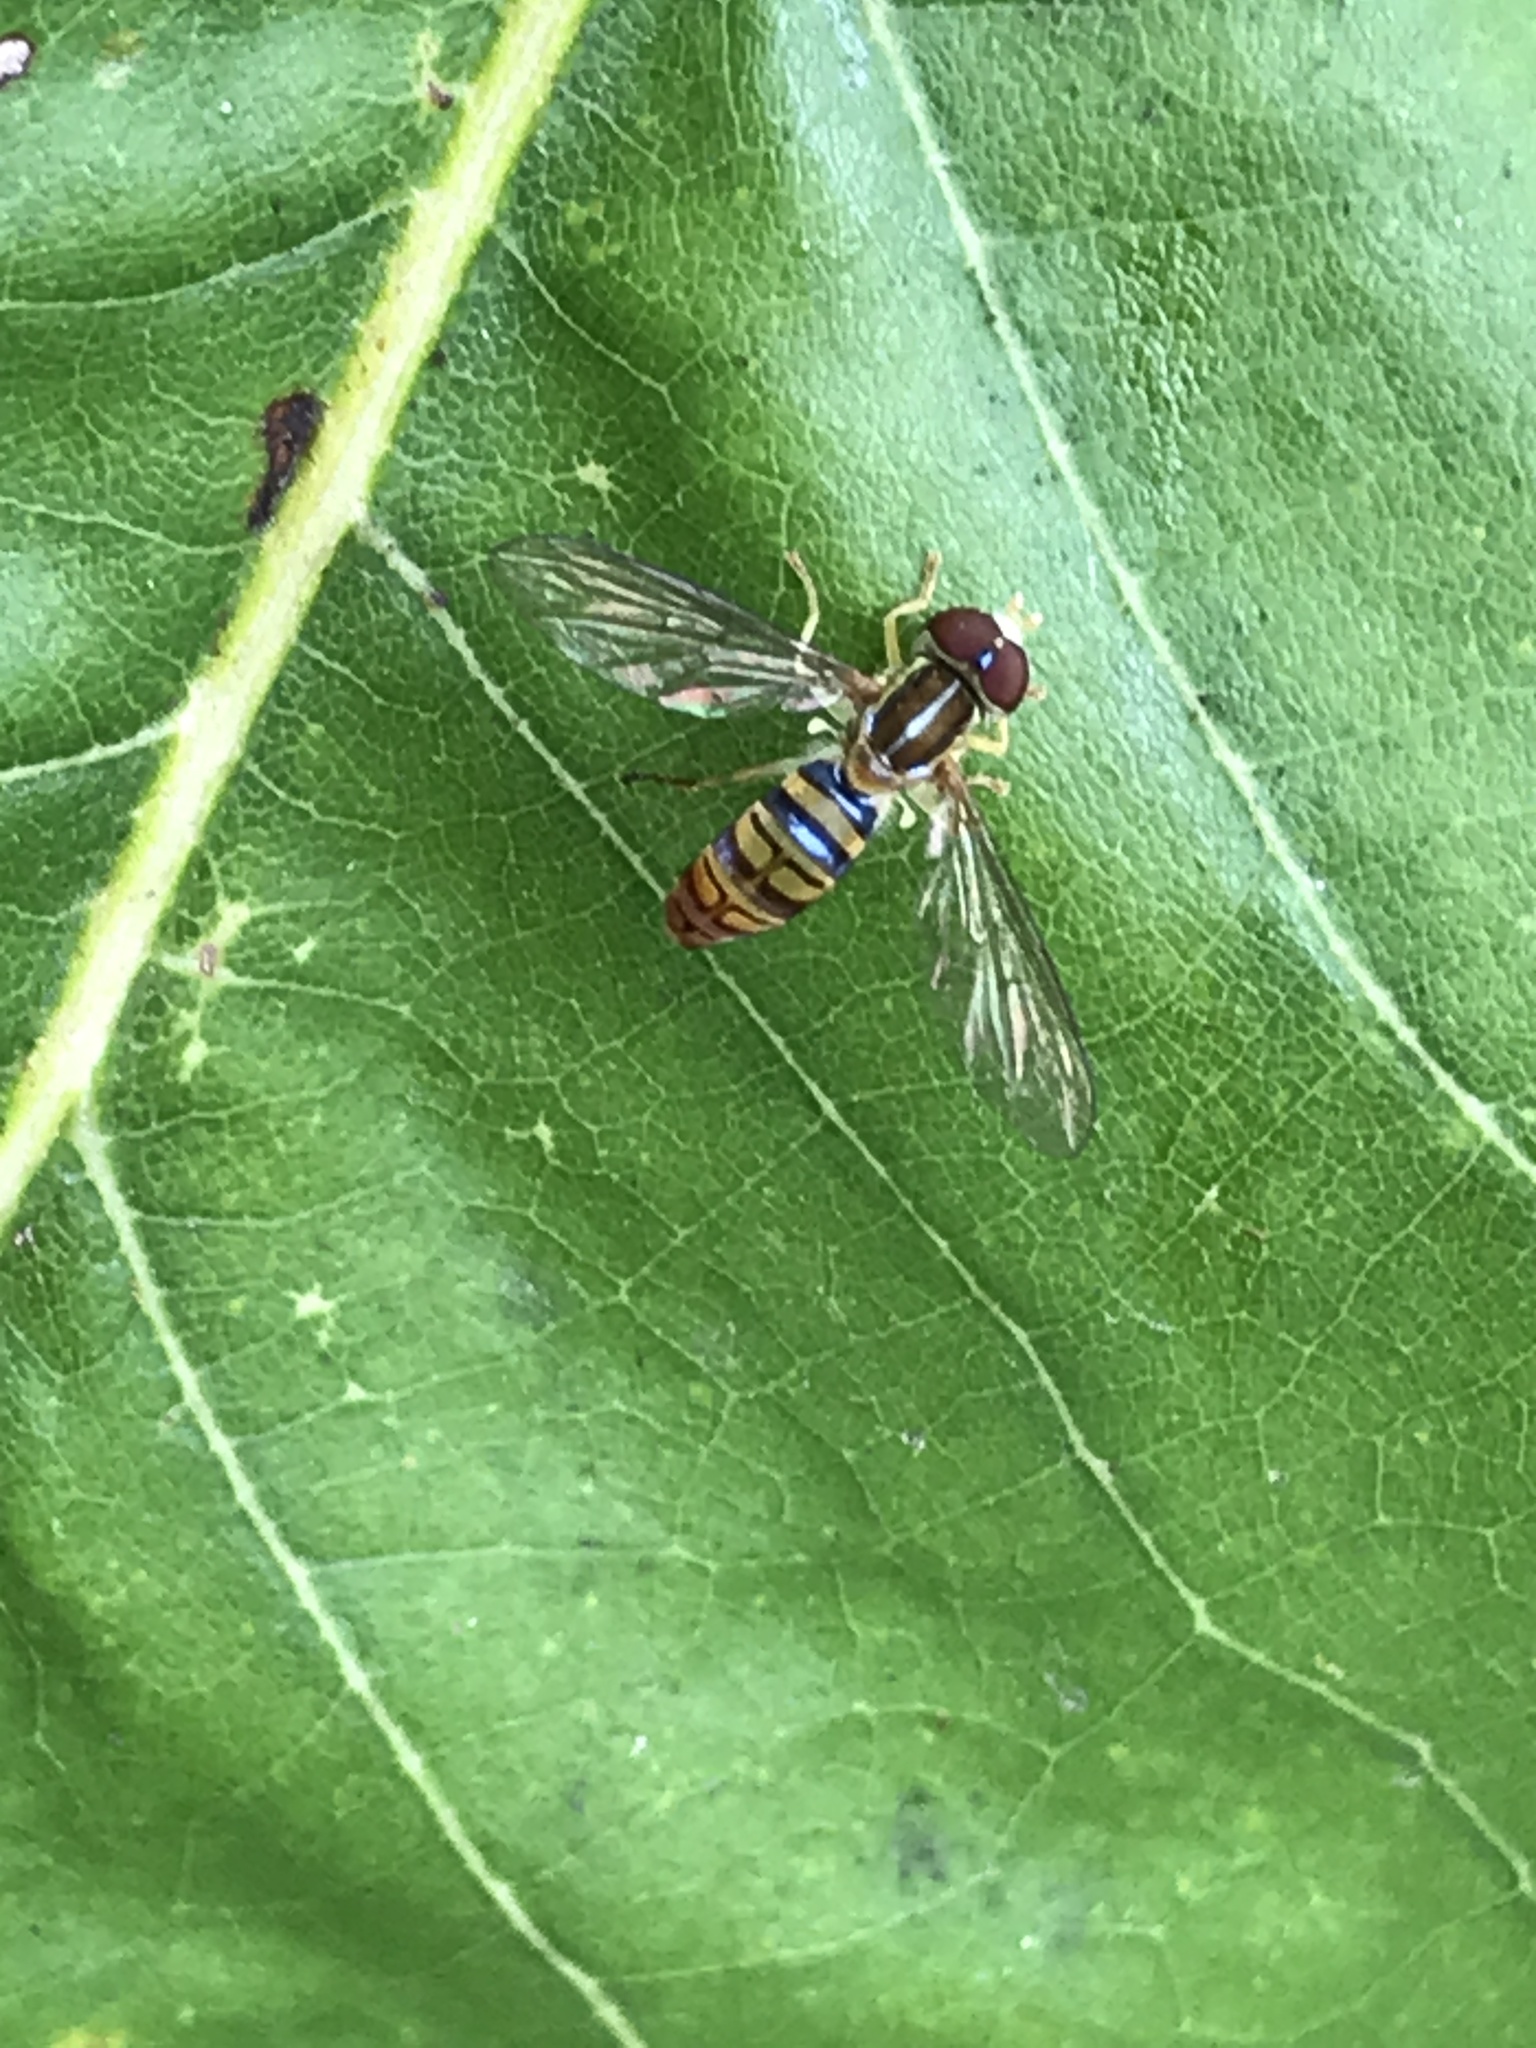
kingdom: Animalia
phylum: Arthropoda
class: Insecta
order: Diptera
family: Syrphidae
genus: Toxomerus
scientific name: Toxomerus politus
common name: Maize calligrapher
